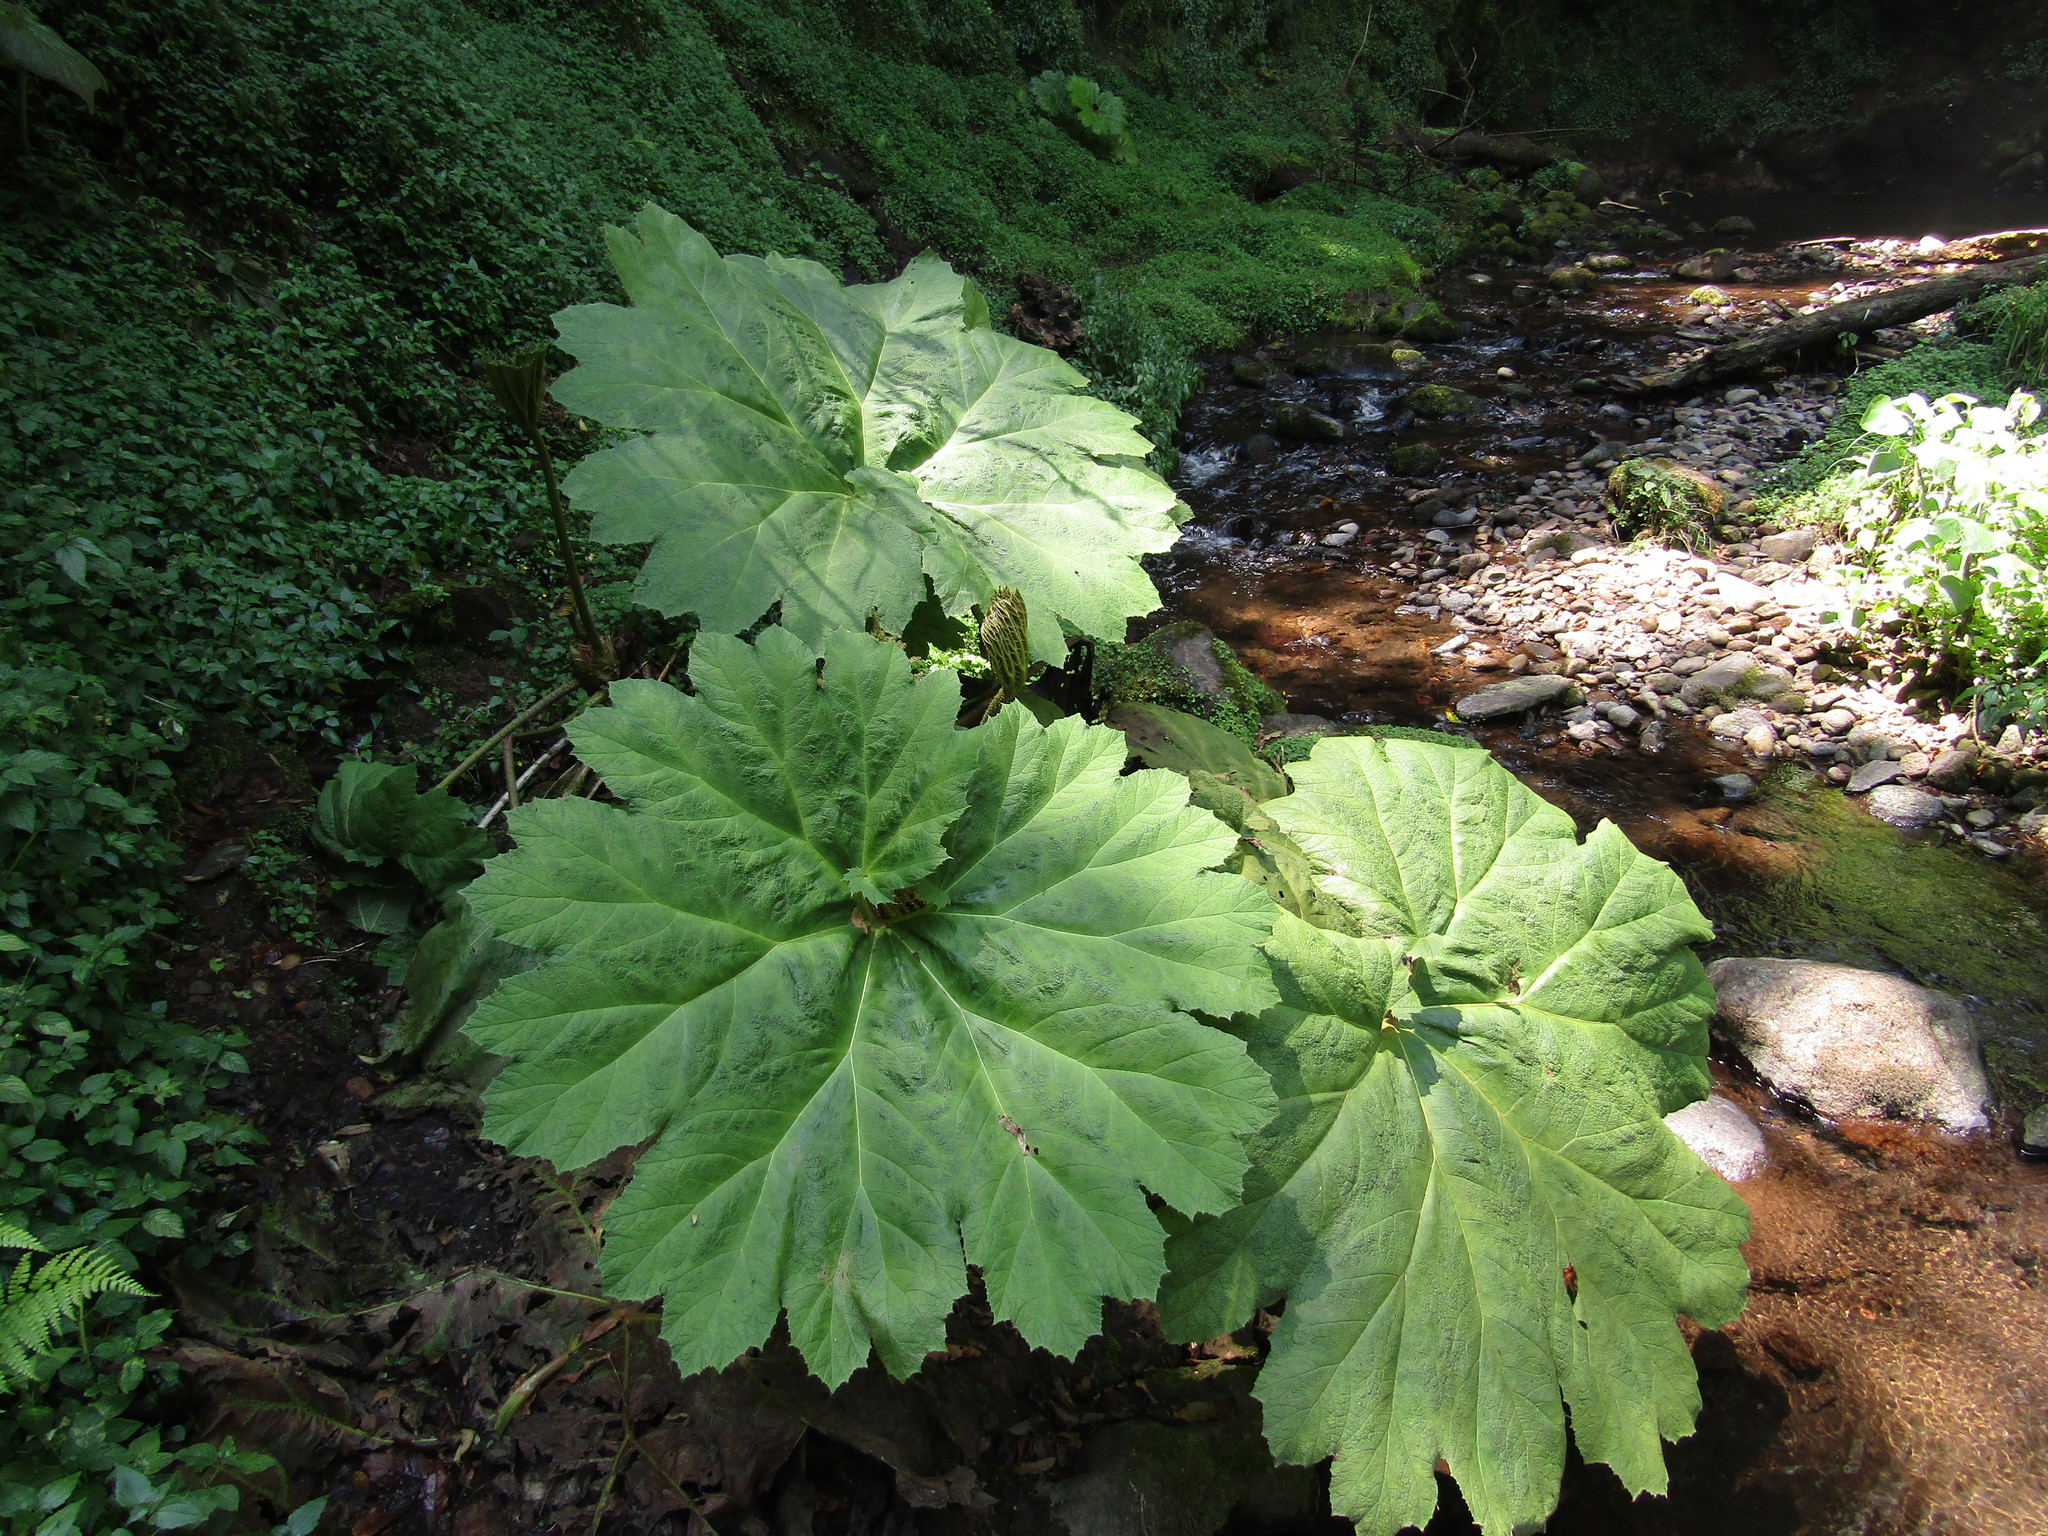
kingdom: Plantae
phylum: Tracheophyta
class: Magnoliopsida
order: Gunnerales
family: Gunneraceae
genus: Gunnera
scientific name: Gunnera mexicana
